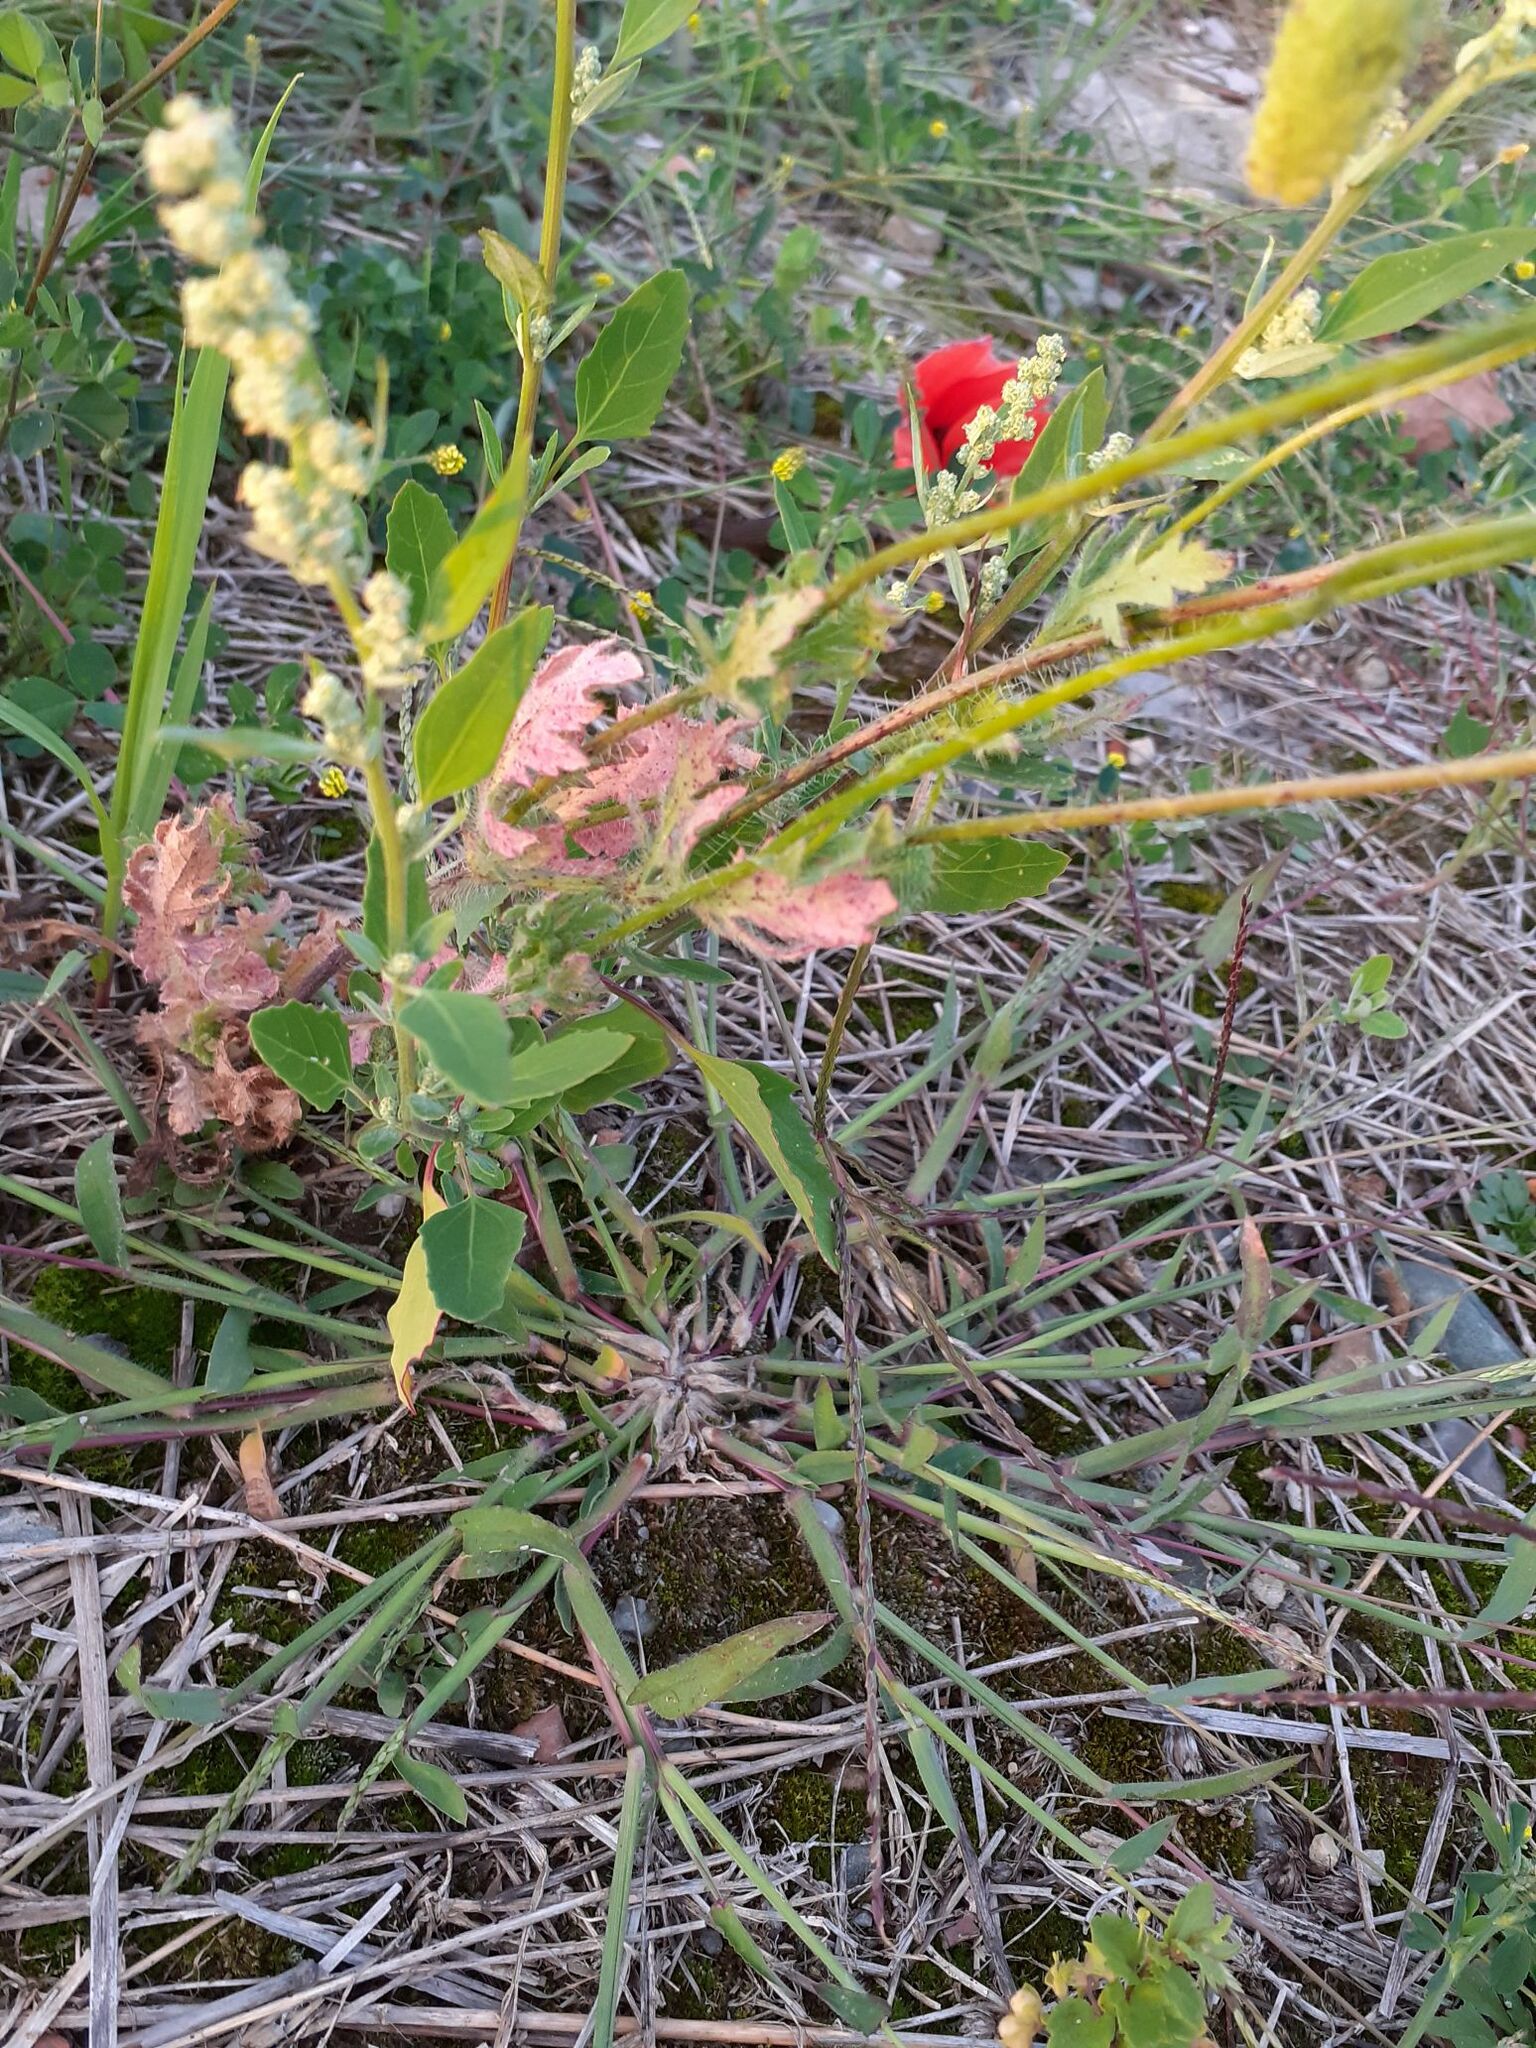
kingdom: Plantae
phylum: Tracheophyta
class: Magnoliopsida
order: Ranunculales
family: Papaveraceae
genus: Papaver
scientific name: Papaver rhoeas
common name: Corn poppy
